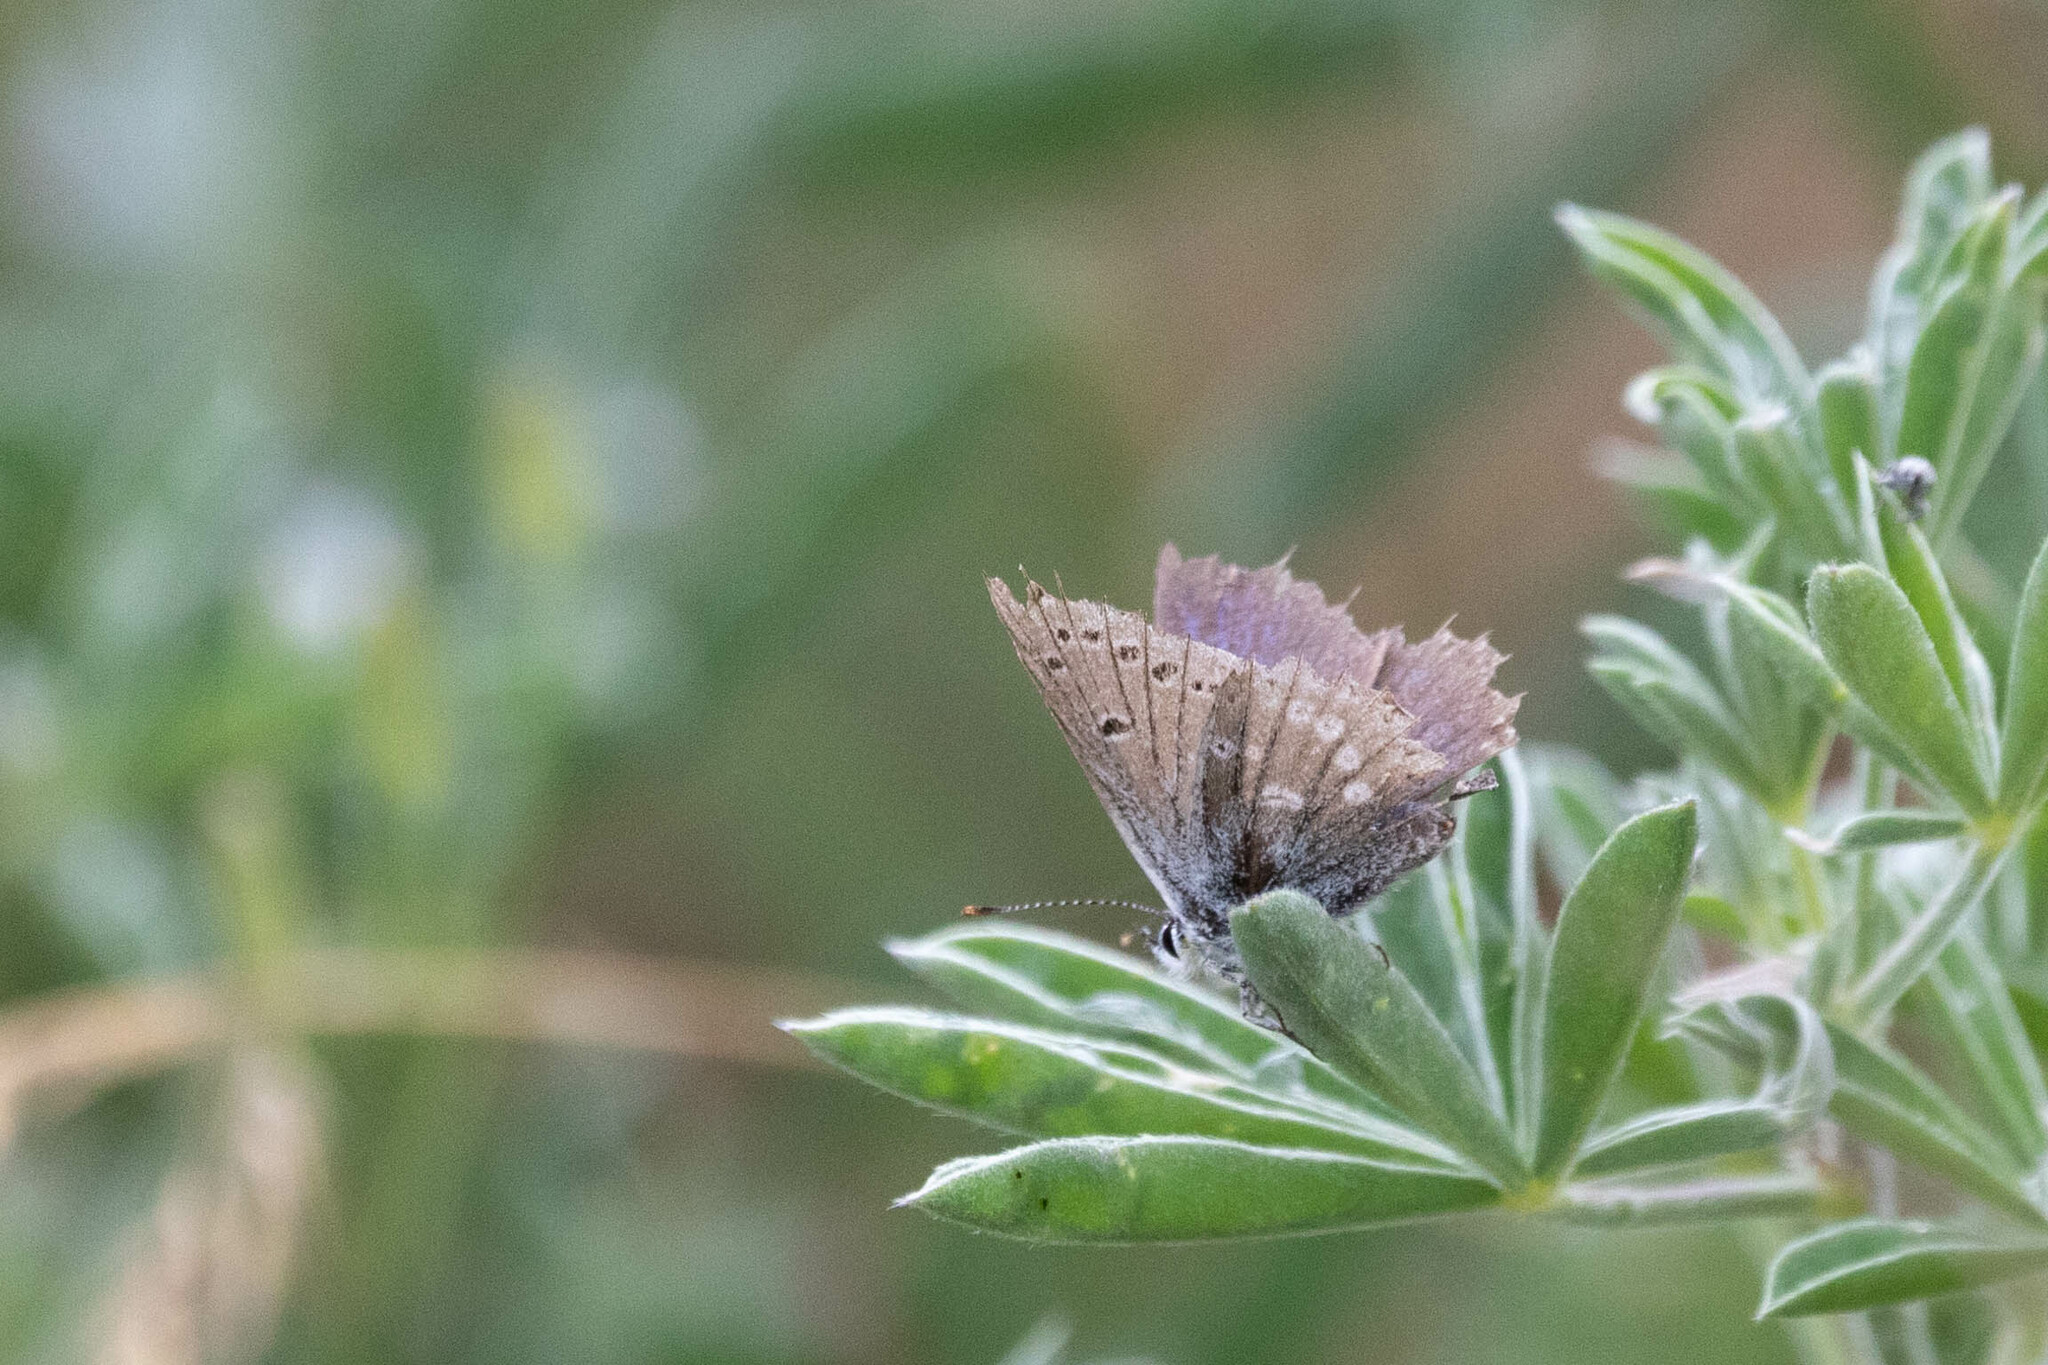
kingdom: Animalia
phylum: Arthropoda
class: Insecta
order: Lepidoptera
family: Lycaenidae
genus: Icaricia
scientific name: Icaricia icarioides
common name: Boisduval's blue
